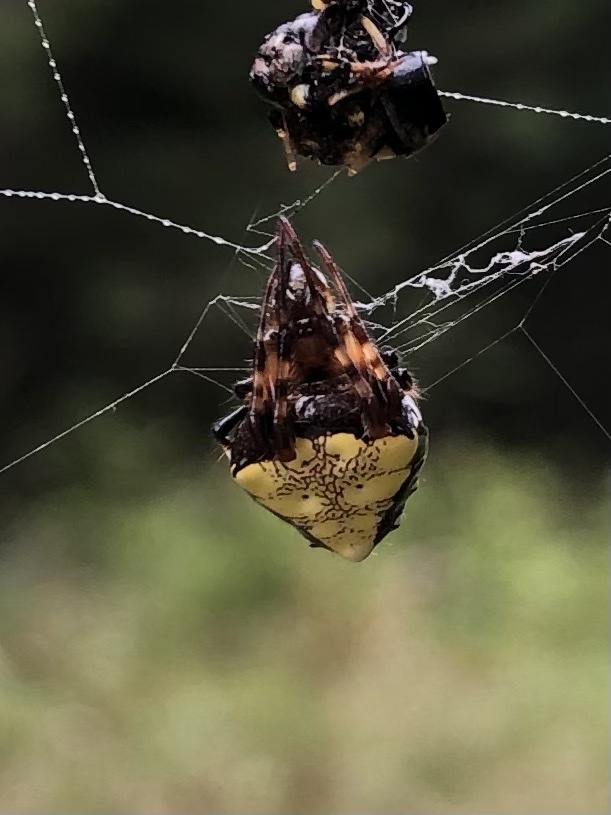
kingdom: Animalia
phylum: Arthropoda
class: Arachnida
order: Araneae
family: Araneidae
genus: Verrucosa
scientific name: Verrucosa arenata
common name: Orb weavers
